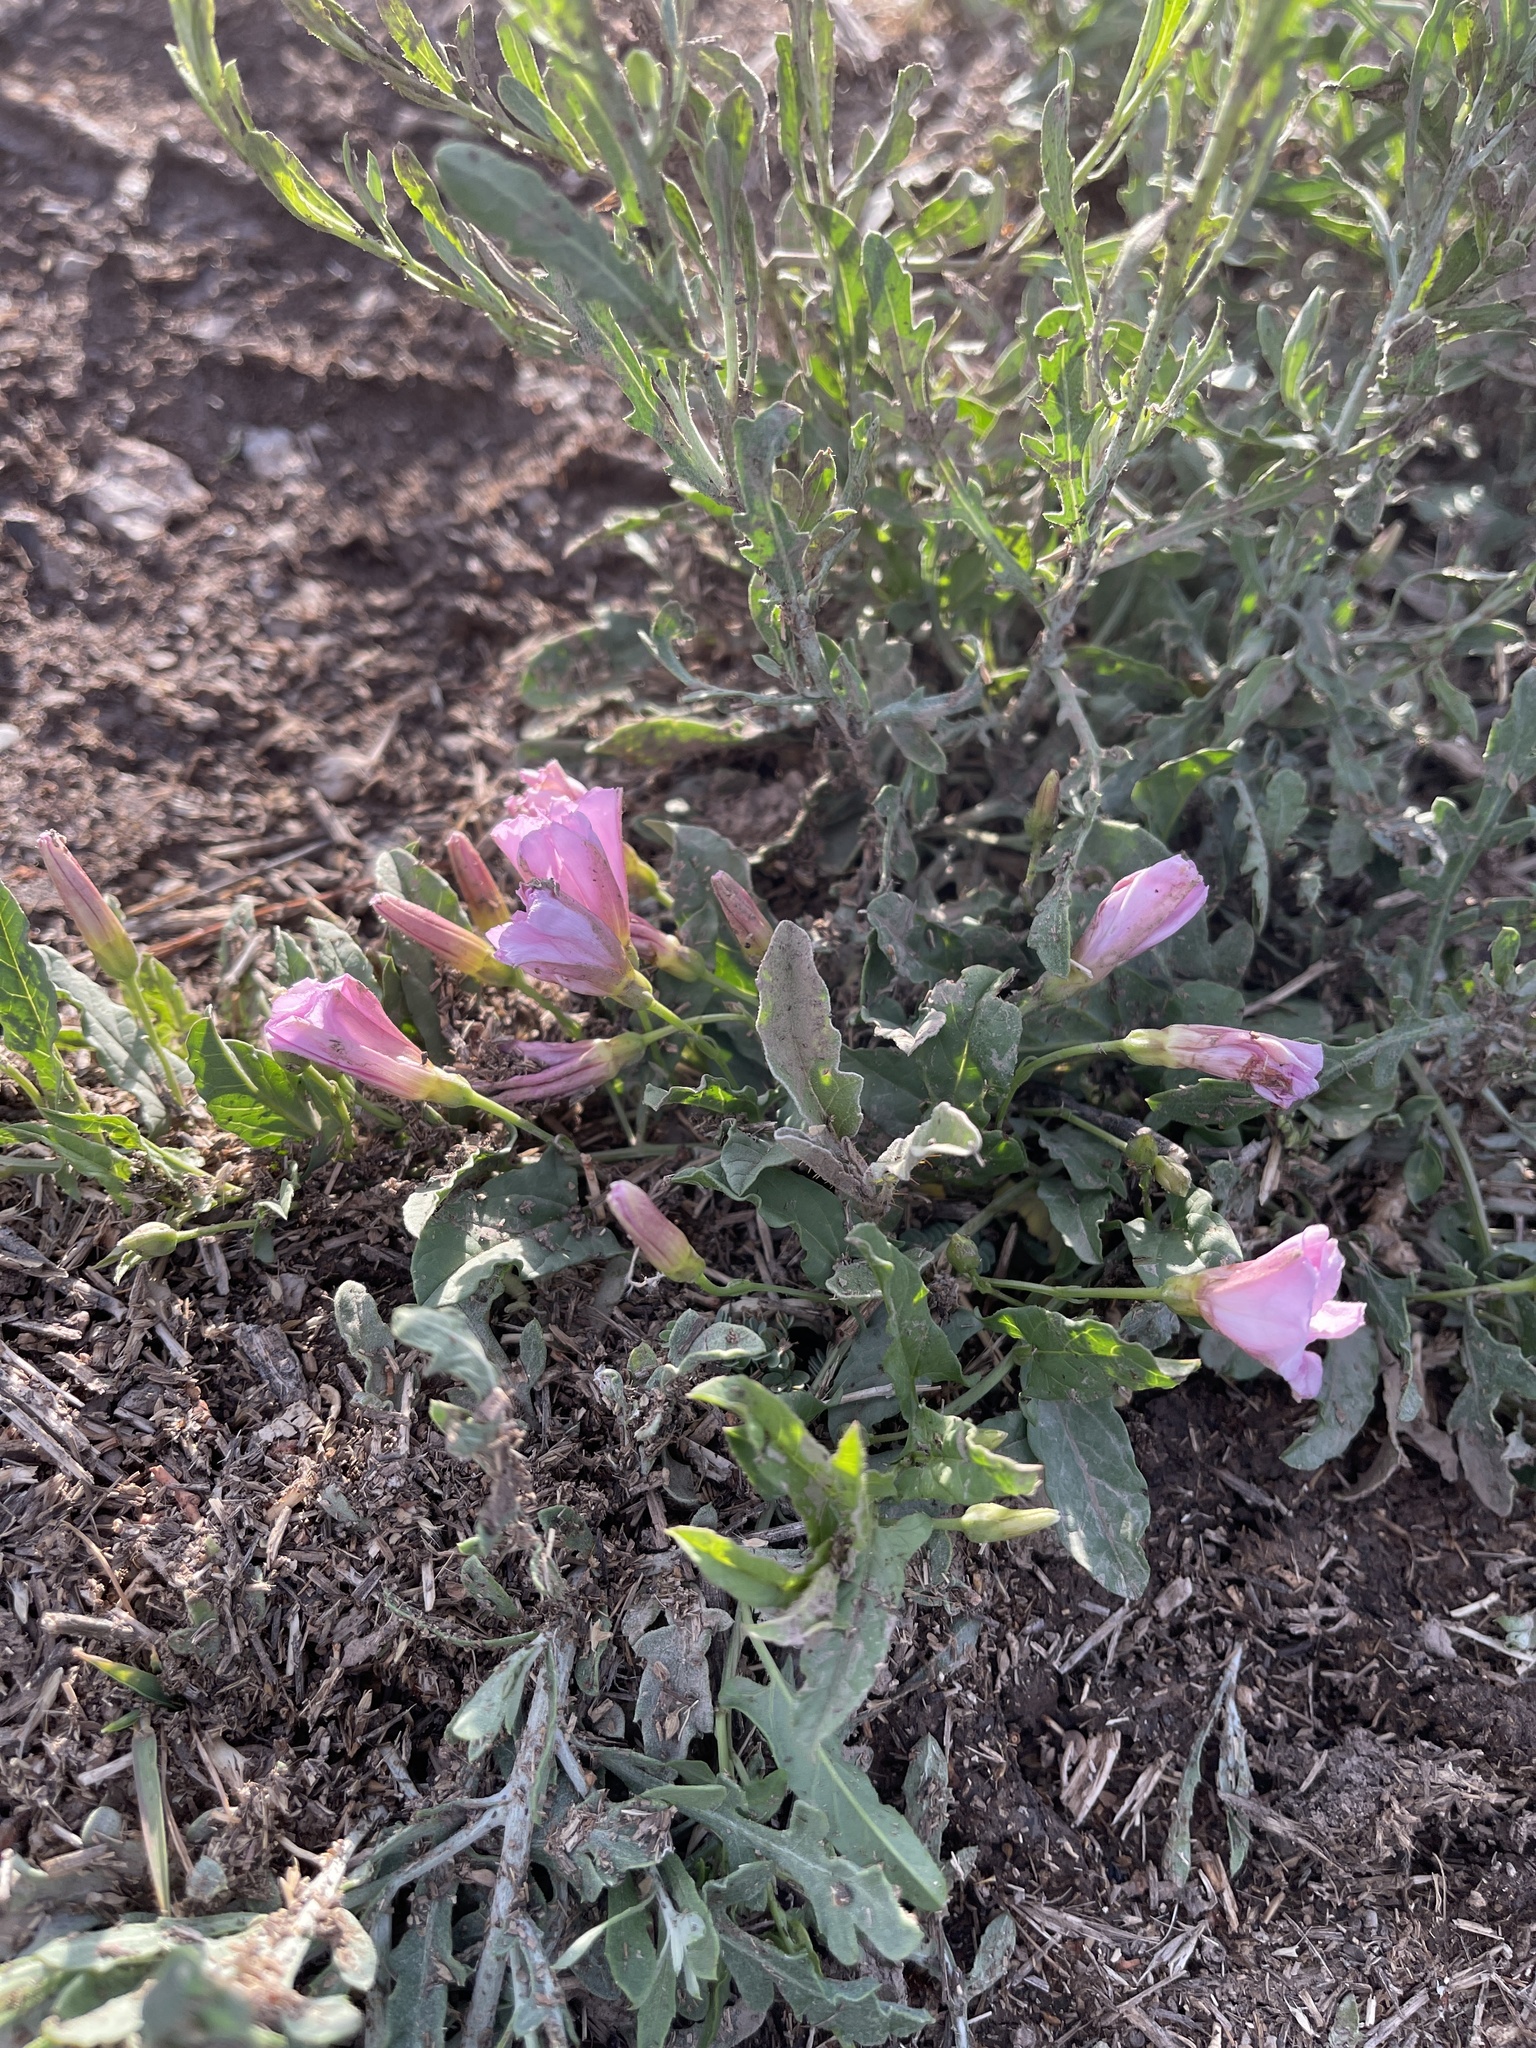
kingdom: Plantae
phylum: Tracheophyta
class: Magnoliopsida
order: Solanales
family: Convolvulaceae
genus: Convolvulus
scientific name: Convolvulus arvensis
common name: Field bindweed
